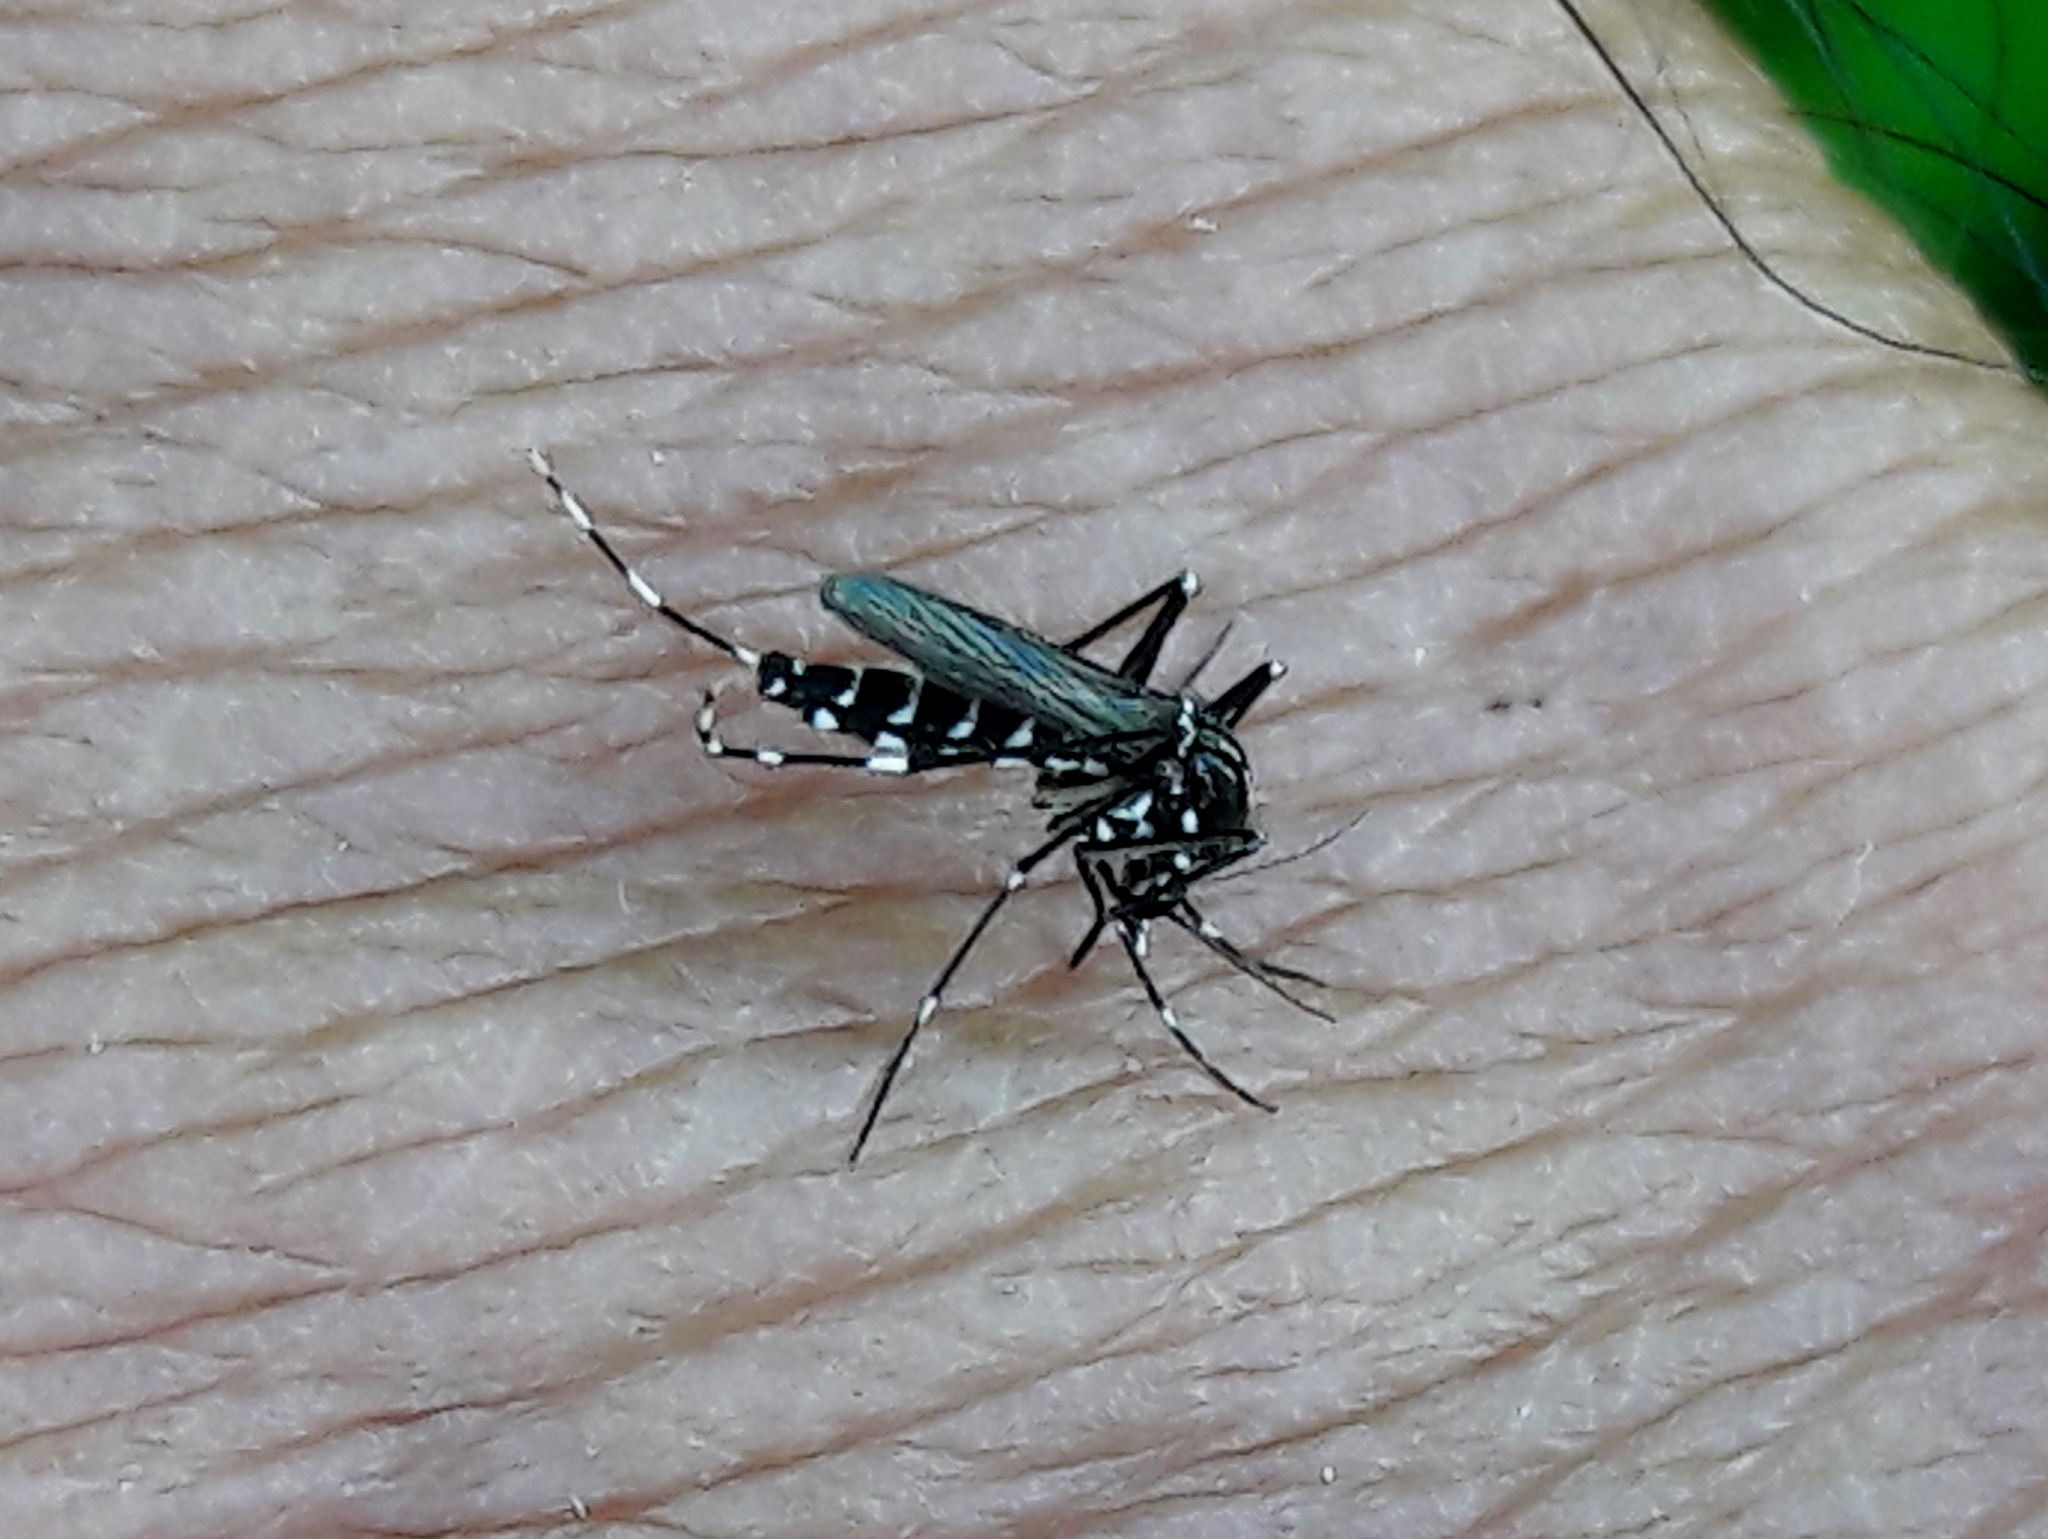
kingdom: Animalia
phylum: Arthropoda
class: Insecta
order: Diptera
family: Culicidae
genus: Aedes
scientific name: Aedes albopictus
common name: Tiger mosquito
